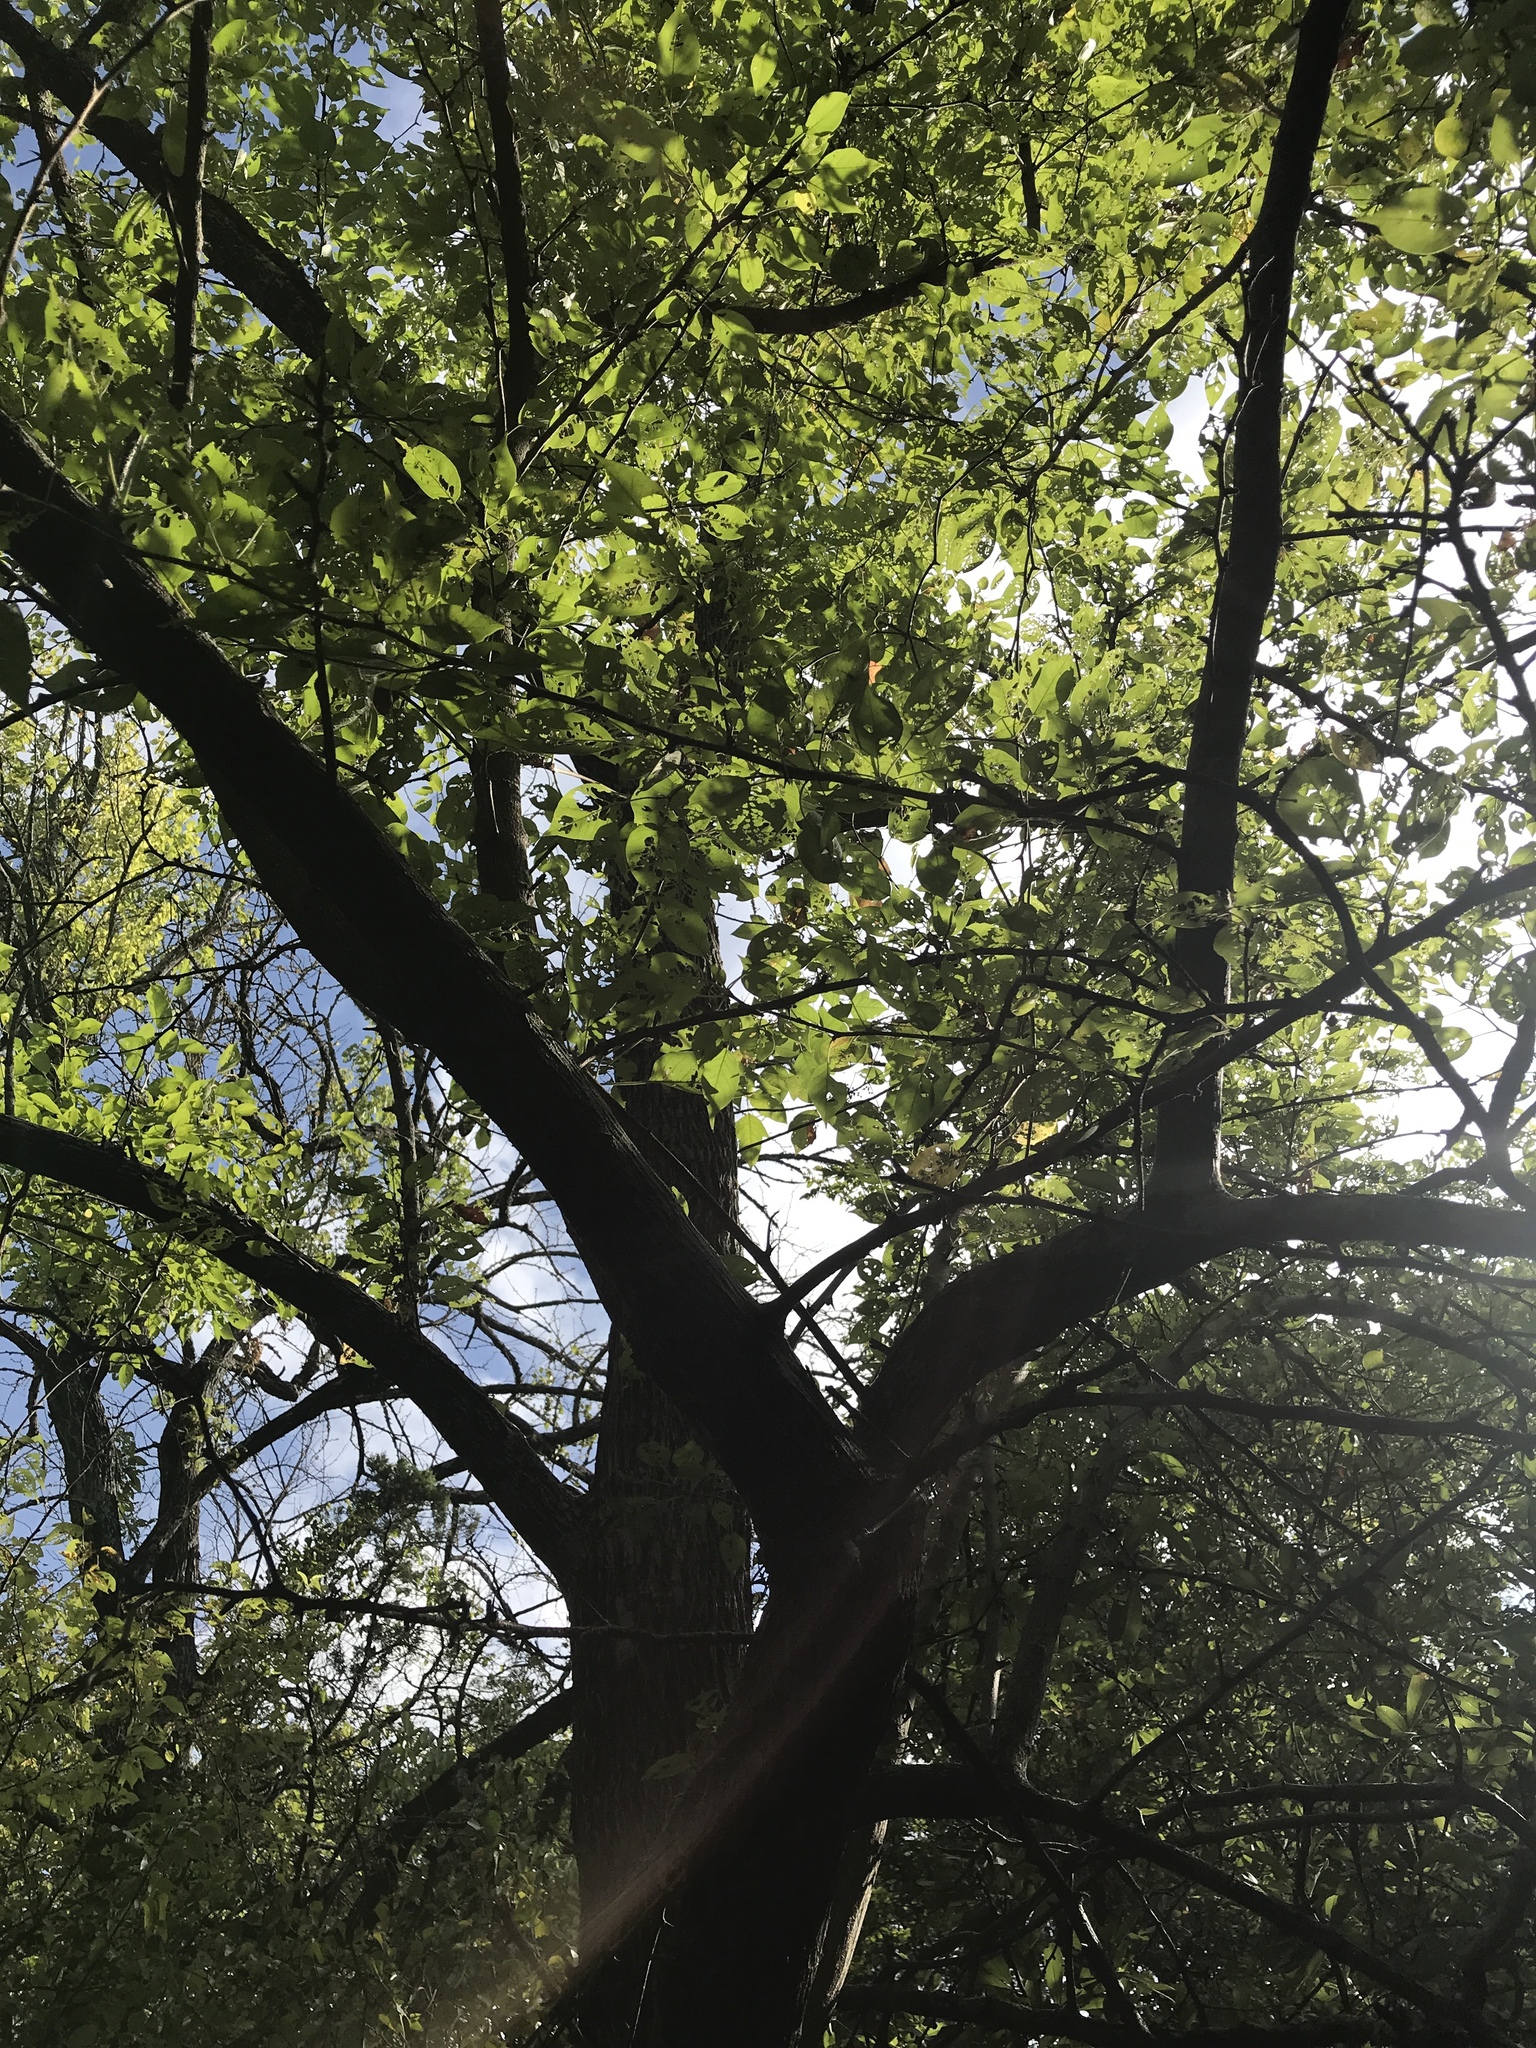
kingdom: Plantae
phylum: Tracheophyta
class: Magnoliopsida
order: Rosales
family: Moraceae
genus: Maclura
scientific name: Maclura pomifera
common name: Osage-orange
